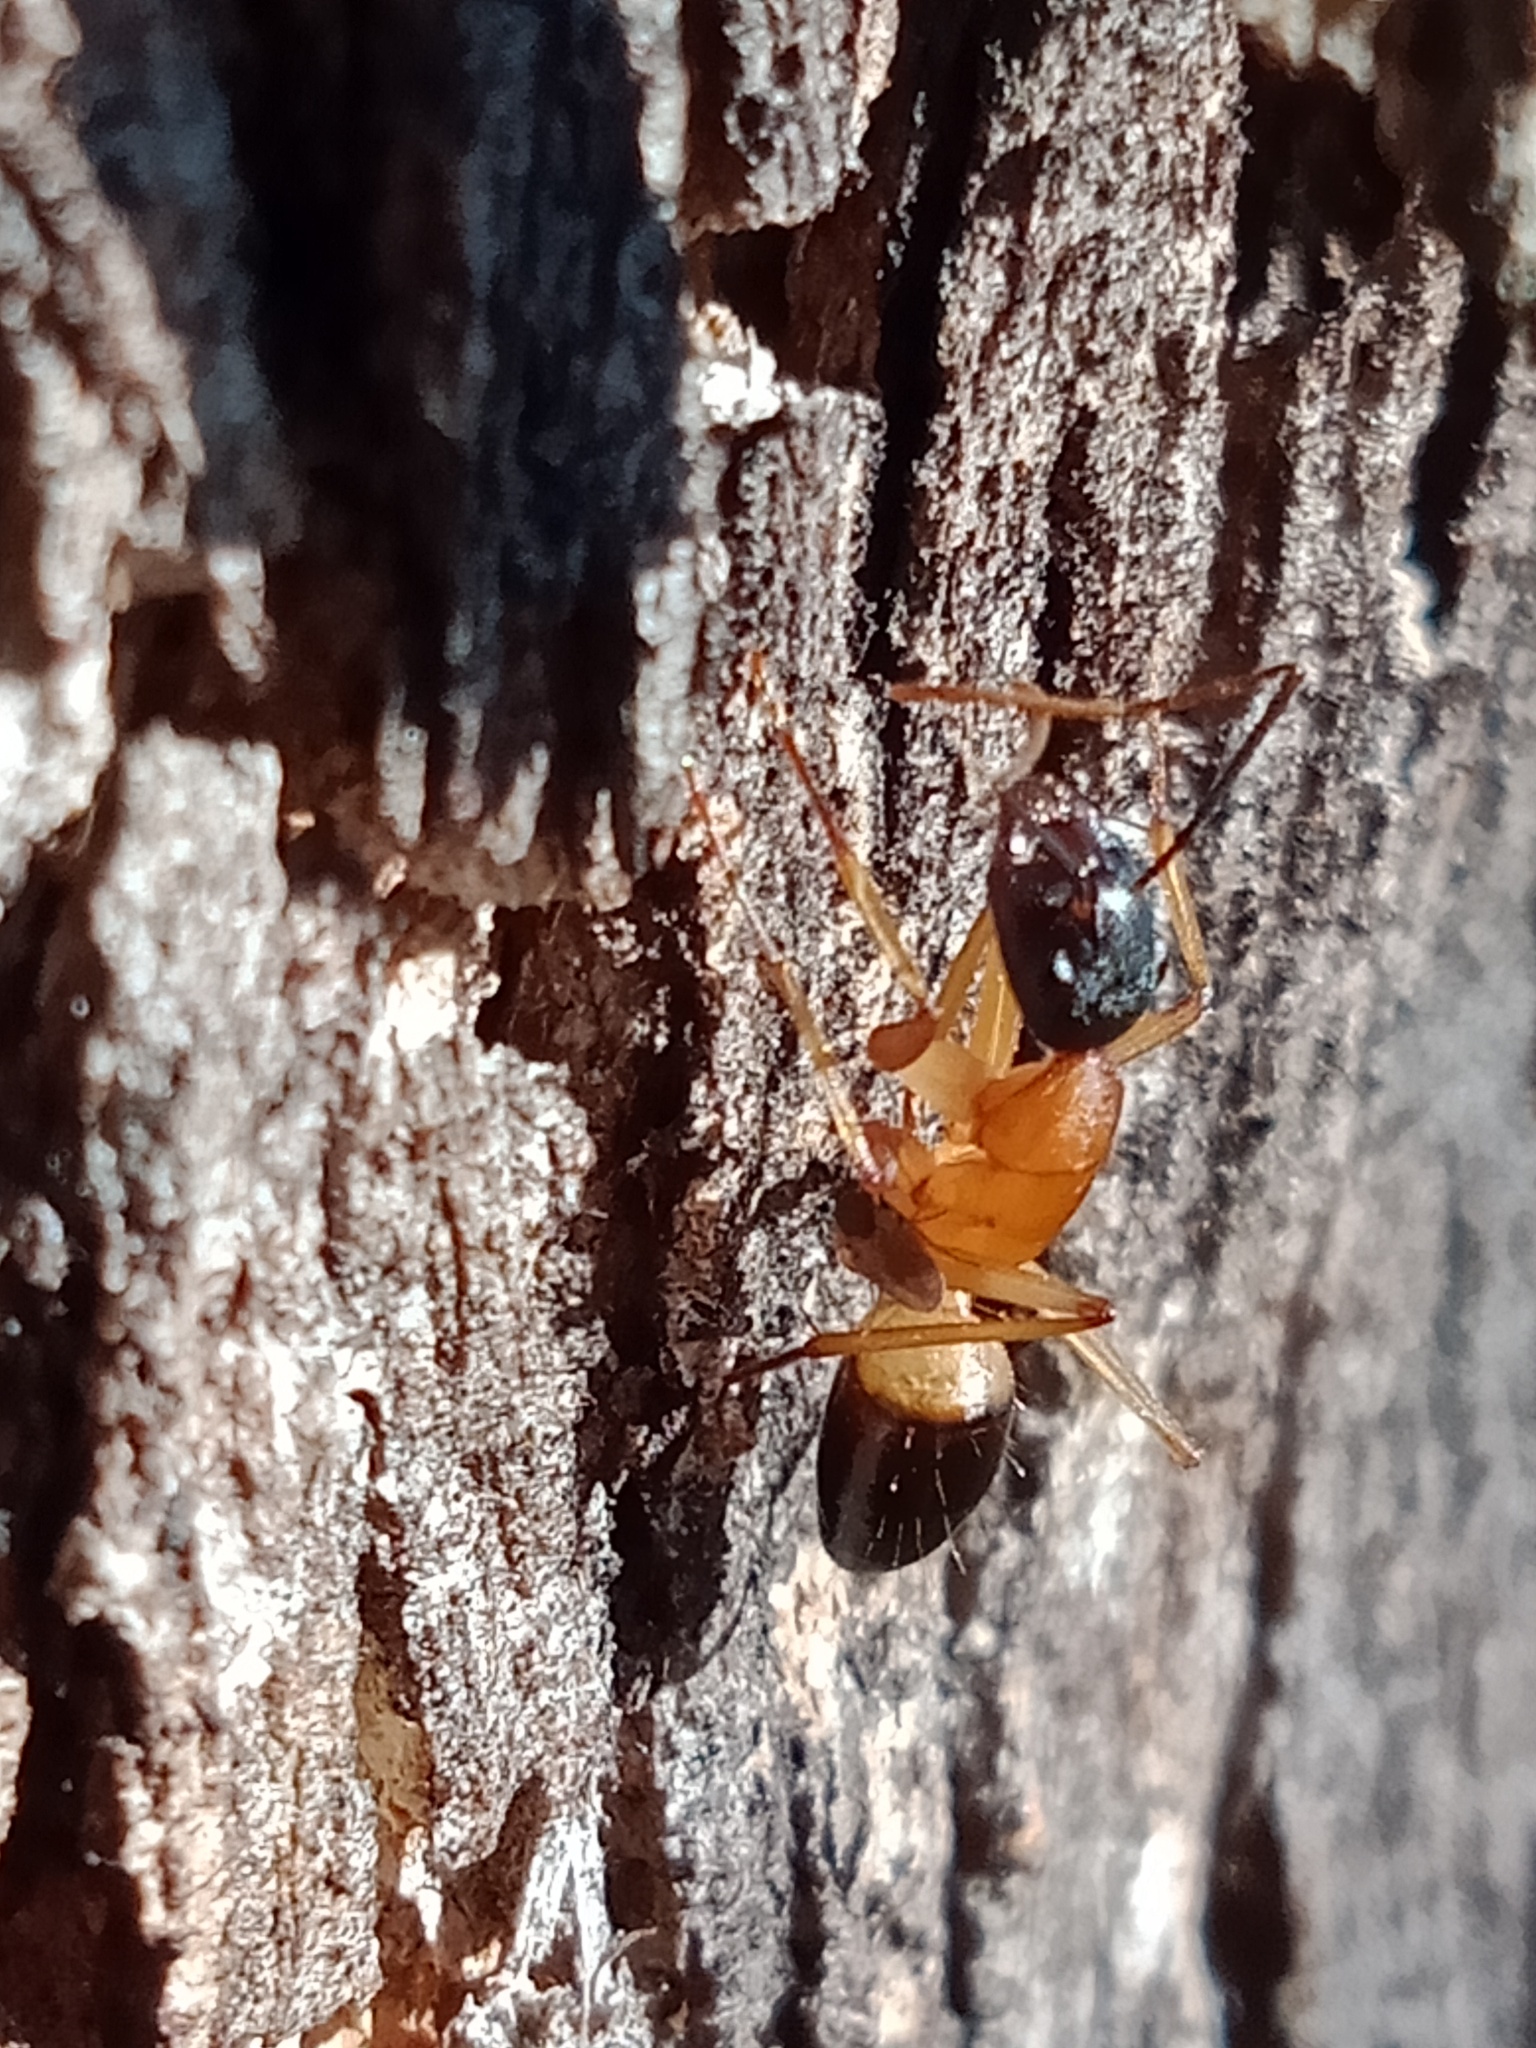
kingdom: Animalia
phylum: Arthropoda
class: Insecta
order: Hymenoptera
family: Formicidae
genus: Camponotus
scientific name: Camponotus consobrinus
